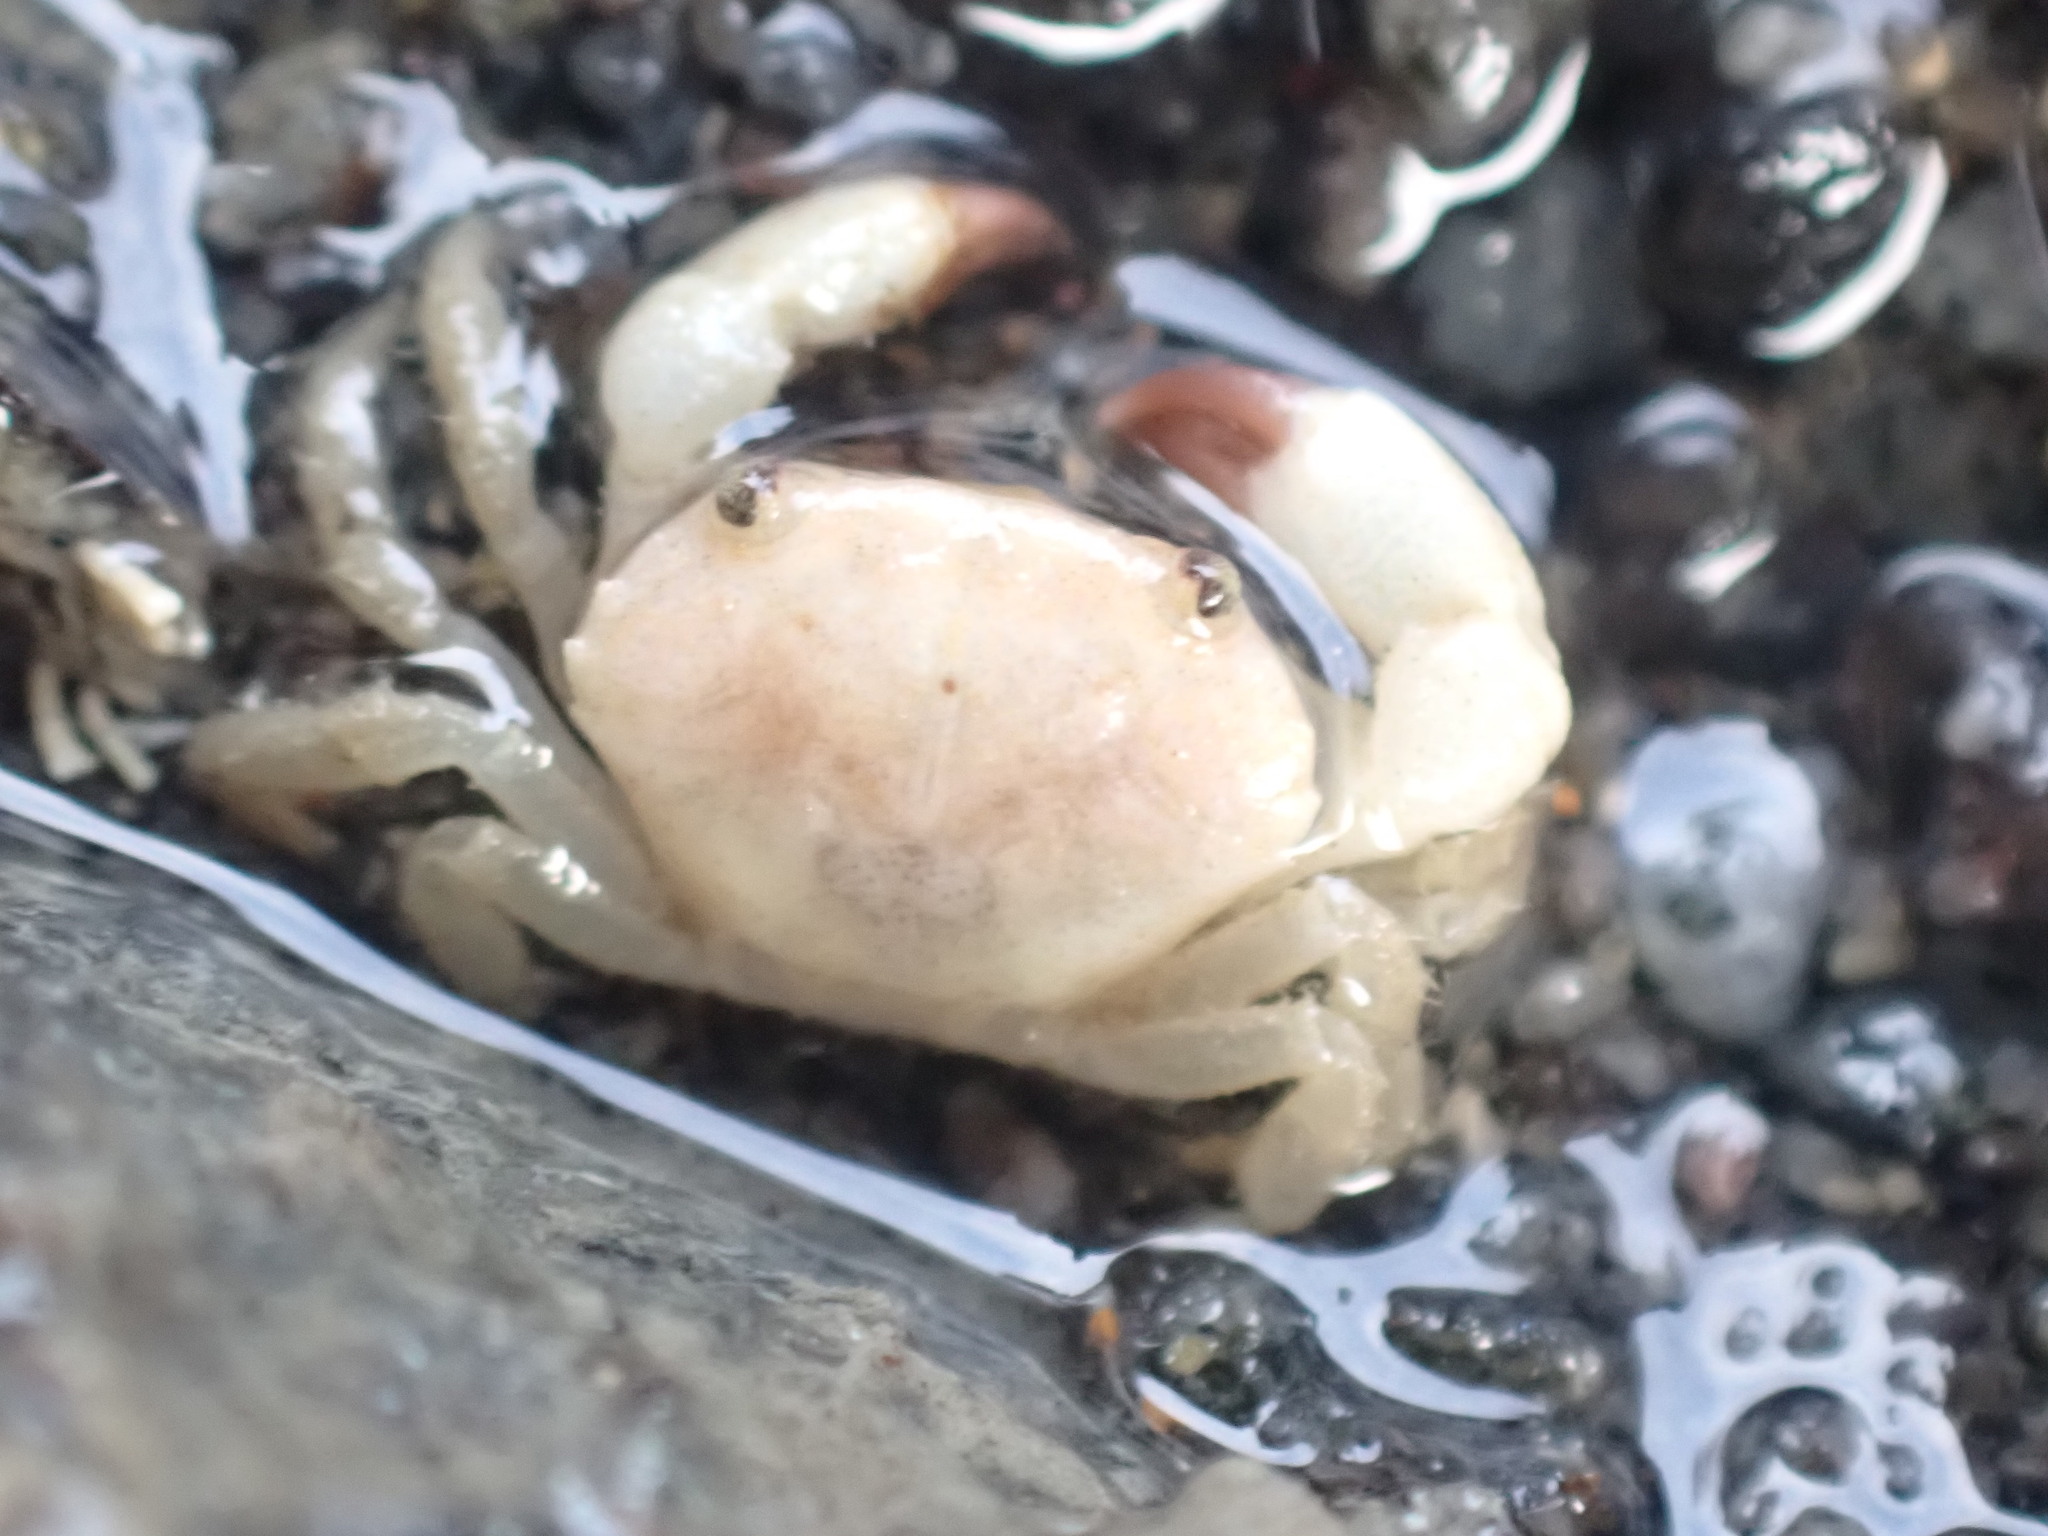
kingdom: Animalia
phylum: Arthropoda
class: Malacostraca
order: Decapoda
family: Oziidae
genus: Ozius
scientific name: Ozius deplanatus
